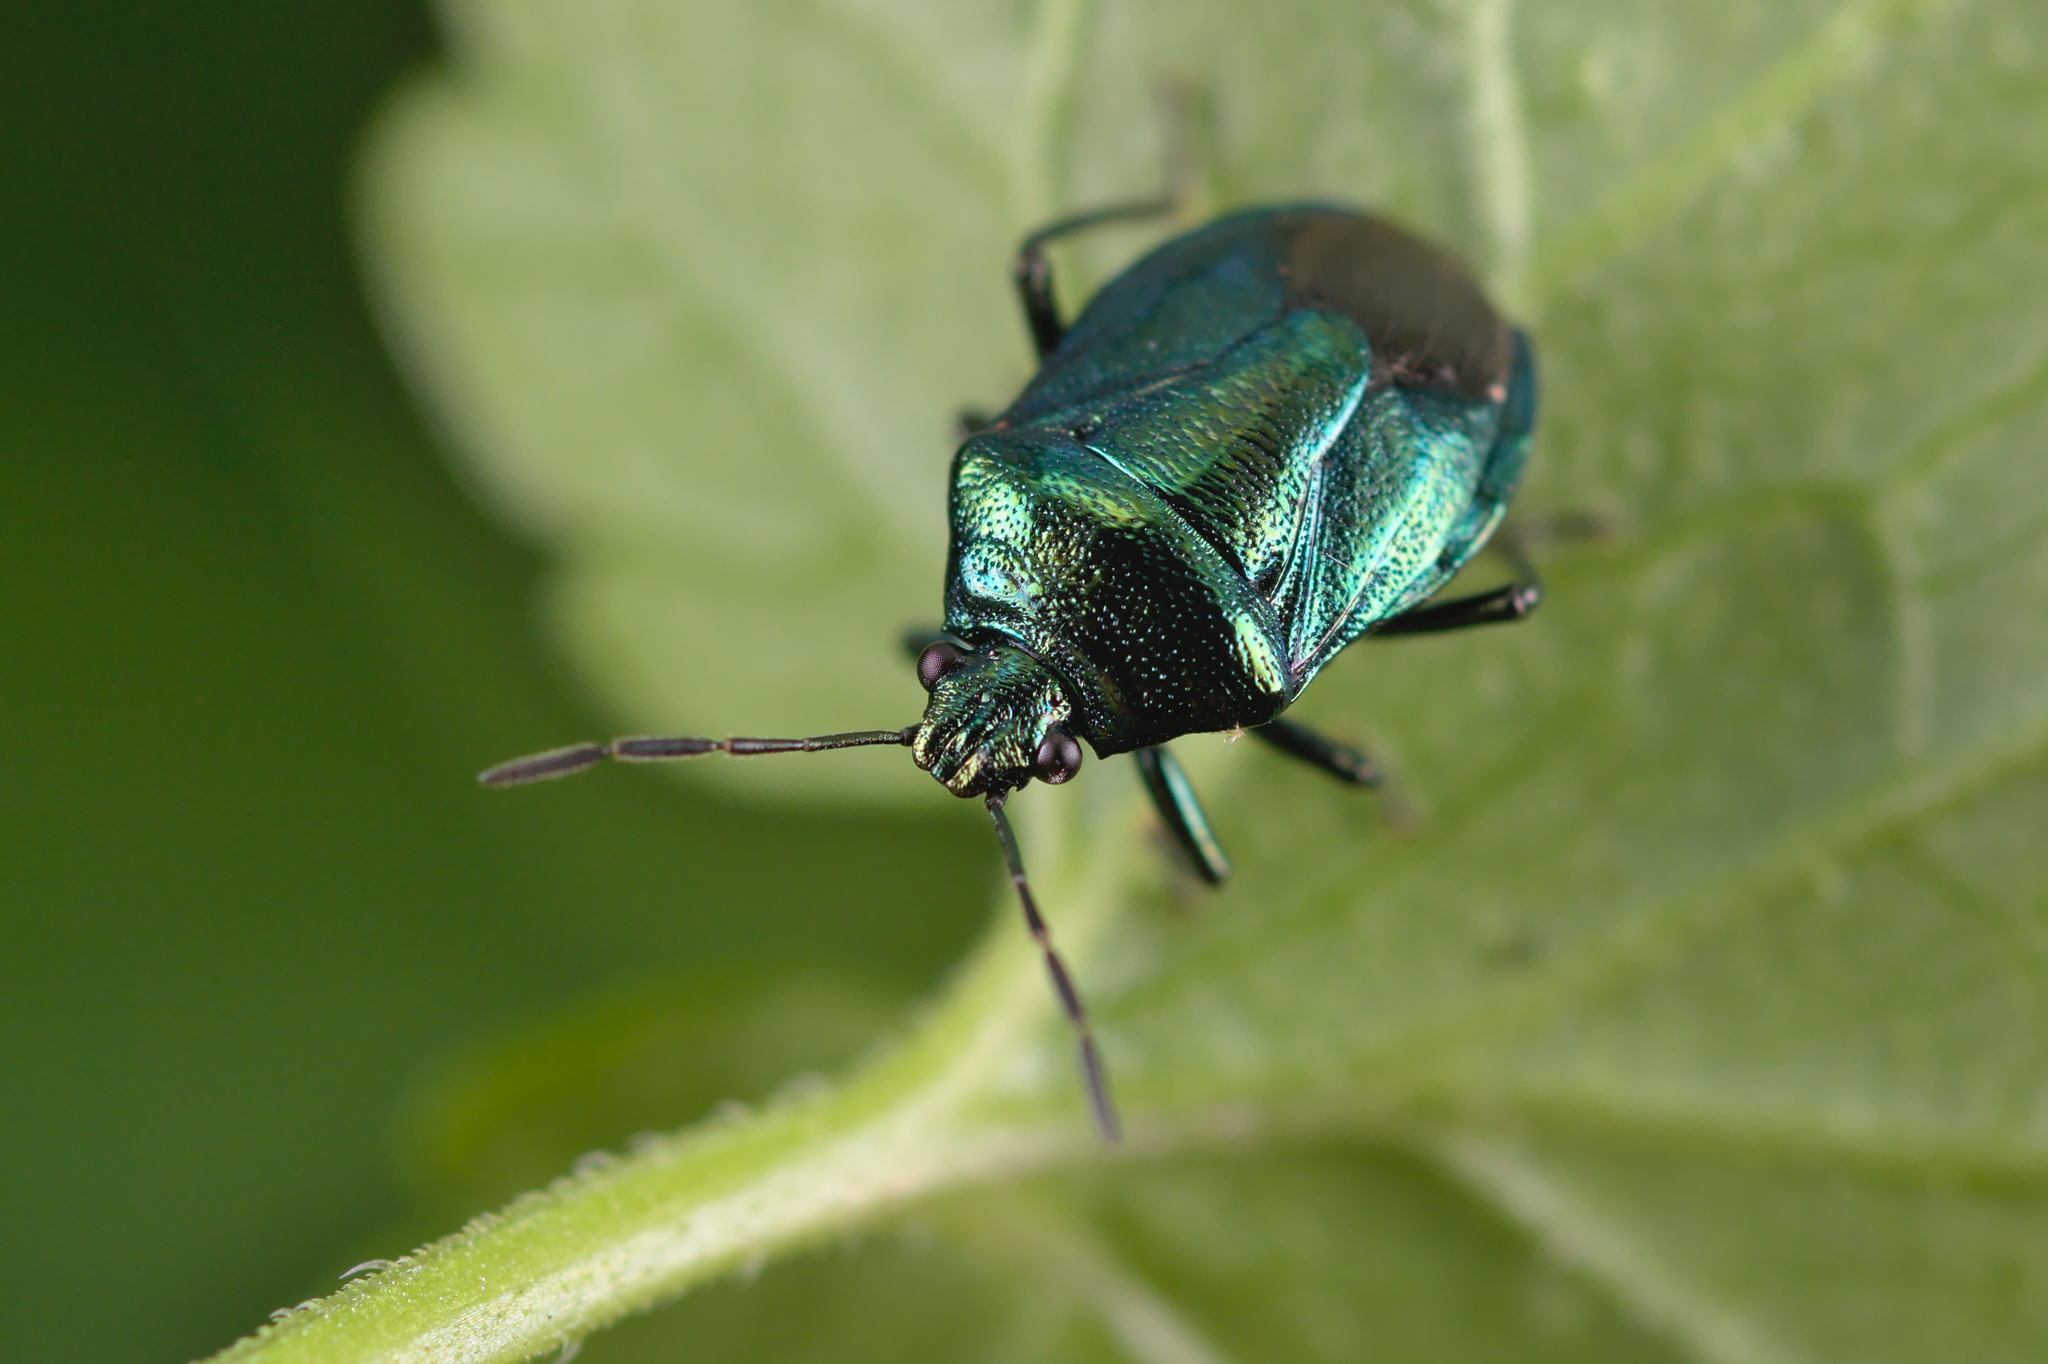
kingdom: Animalia
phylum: Arthropoda
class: Insecta
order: Hemiptera
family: Pentatomidae
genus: Zicrona
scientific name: Zicrona caerulea
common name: Blue shieldbug
